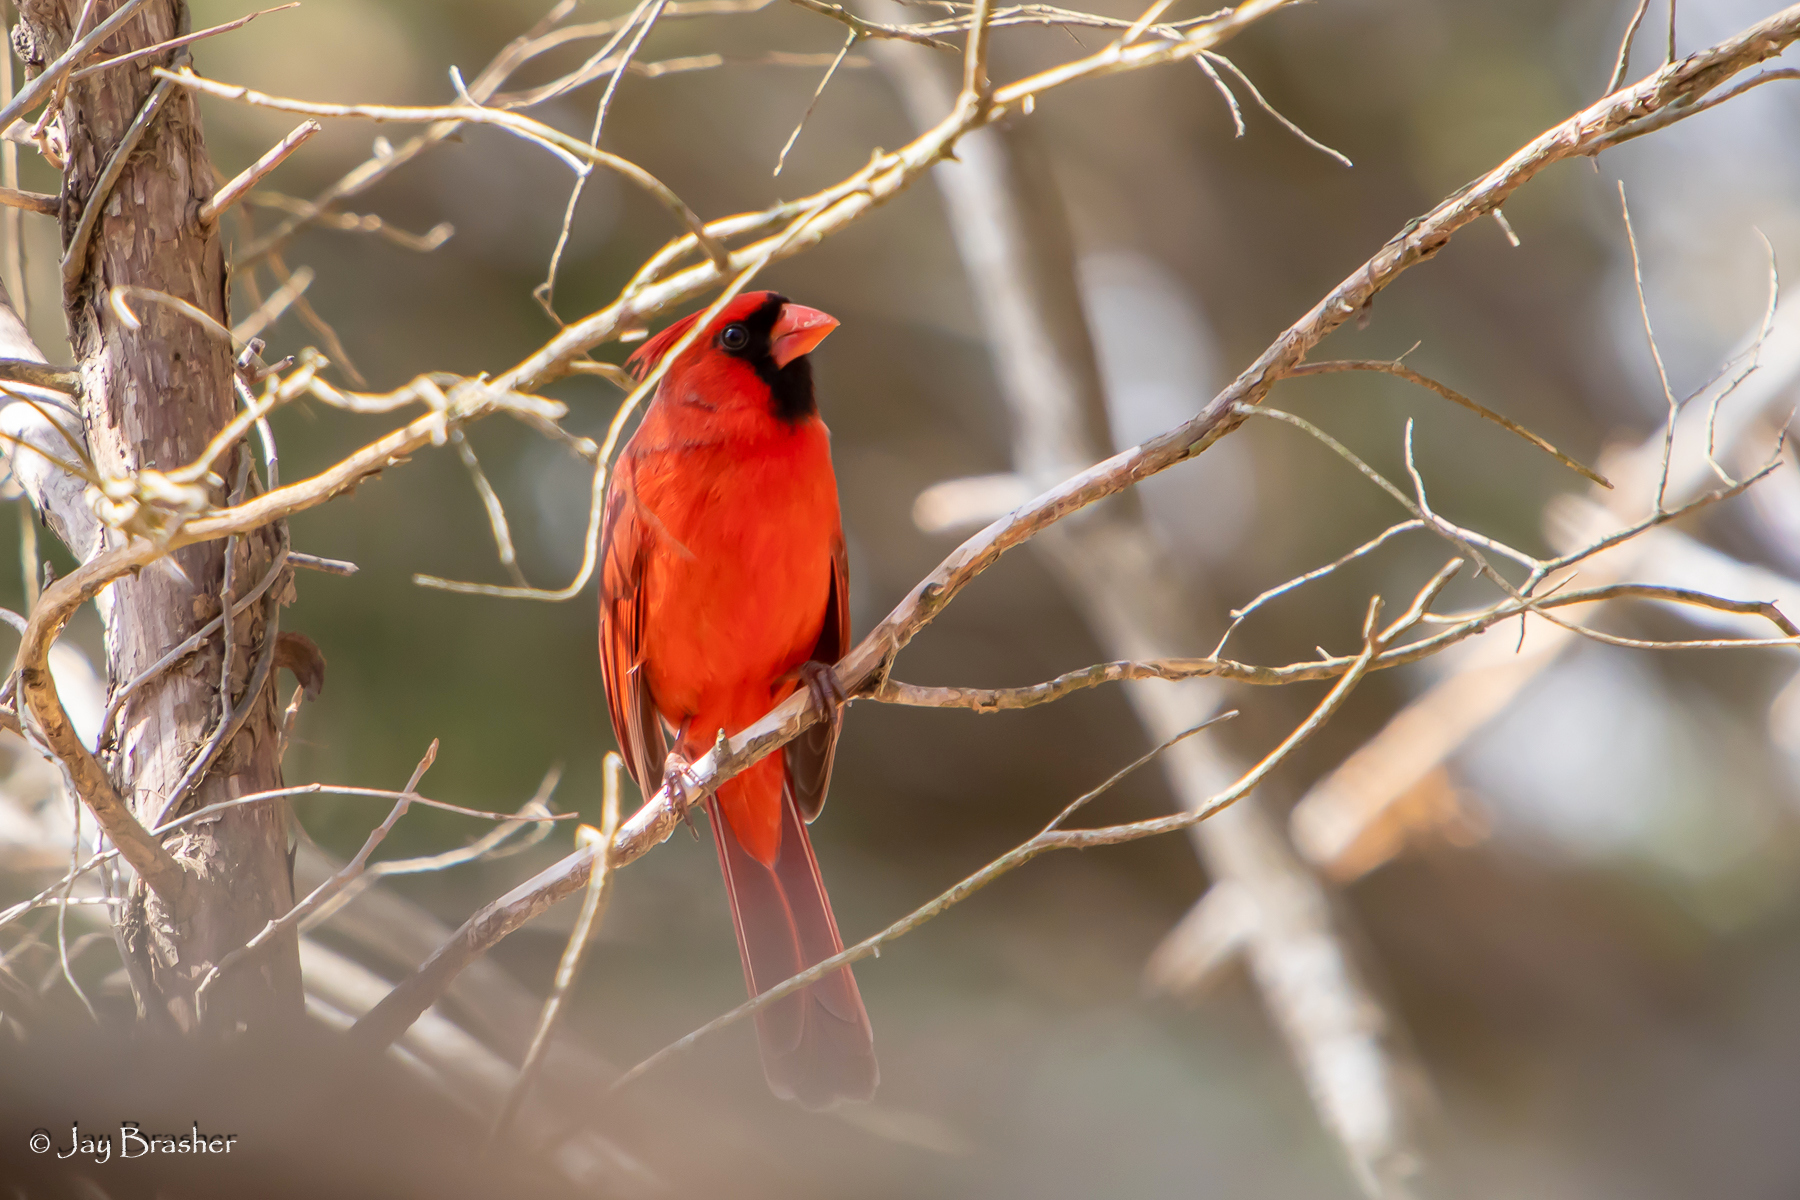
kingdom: Animalia
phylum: Chordata
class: Aves
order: Passeriformes
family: Cardinalidae
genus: Cardinalis
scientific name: Cardinalis cardinalis
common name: Northern cardinal
